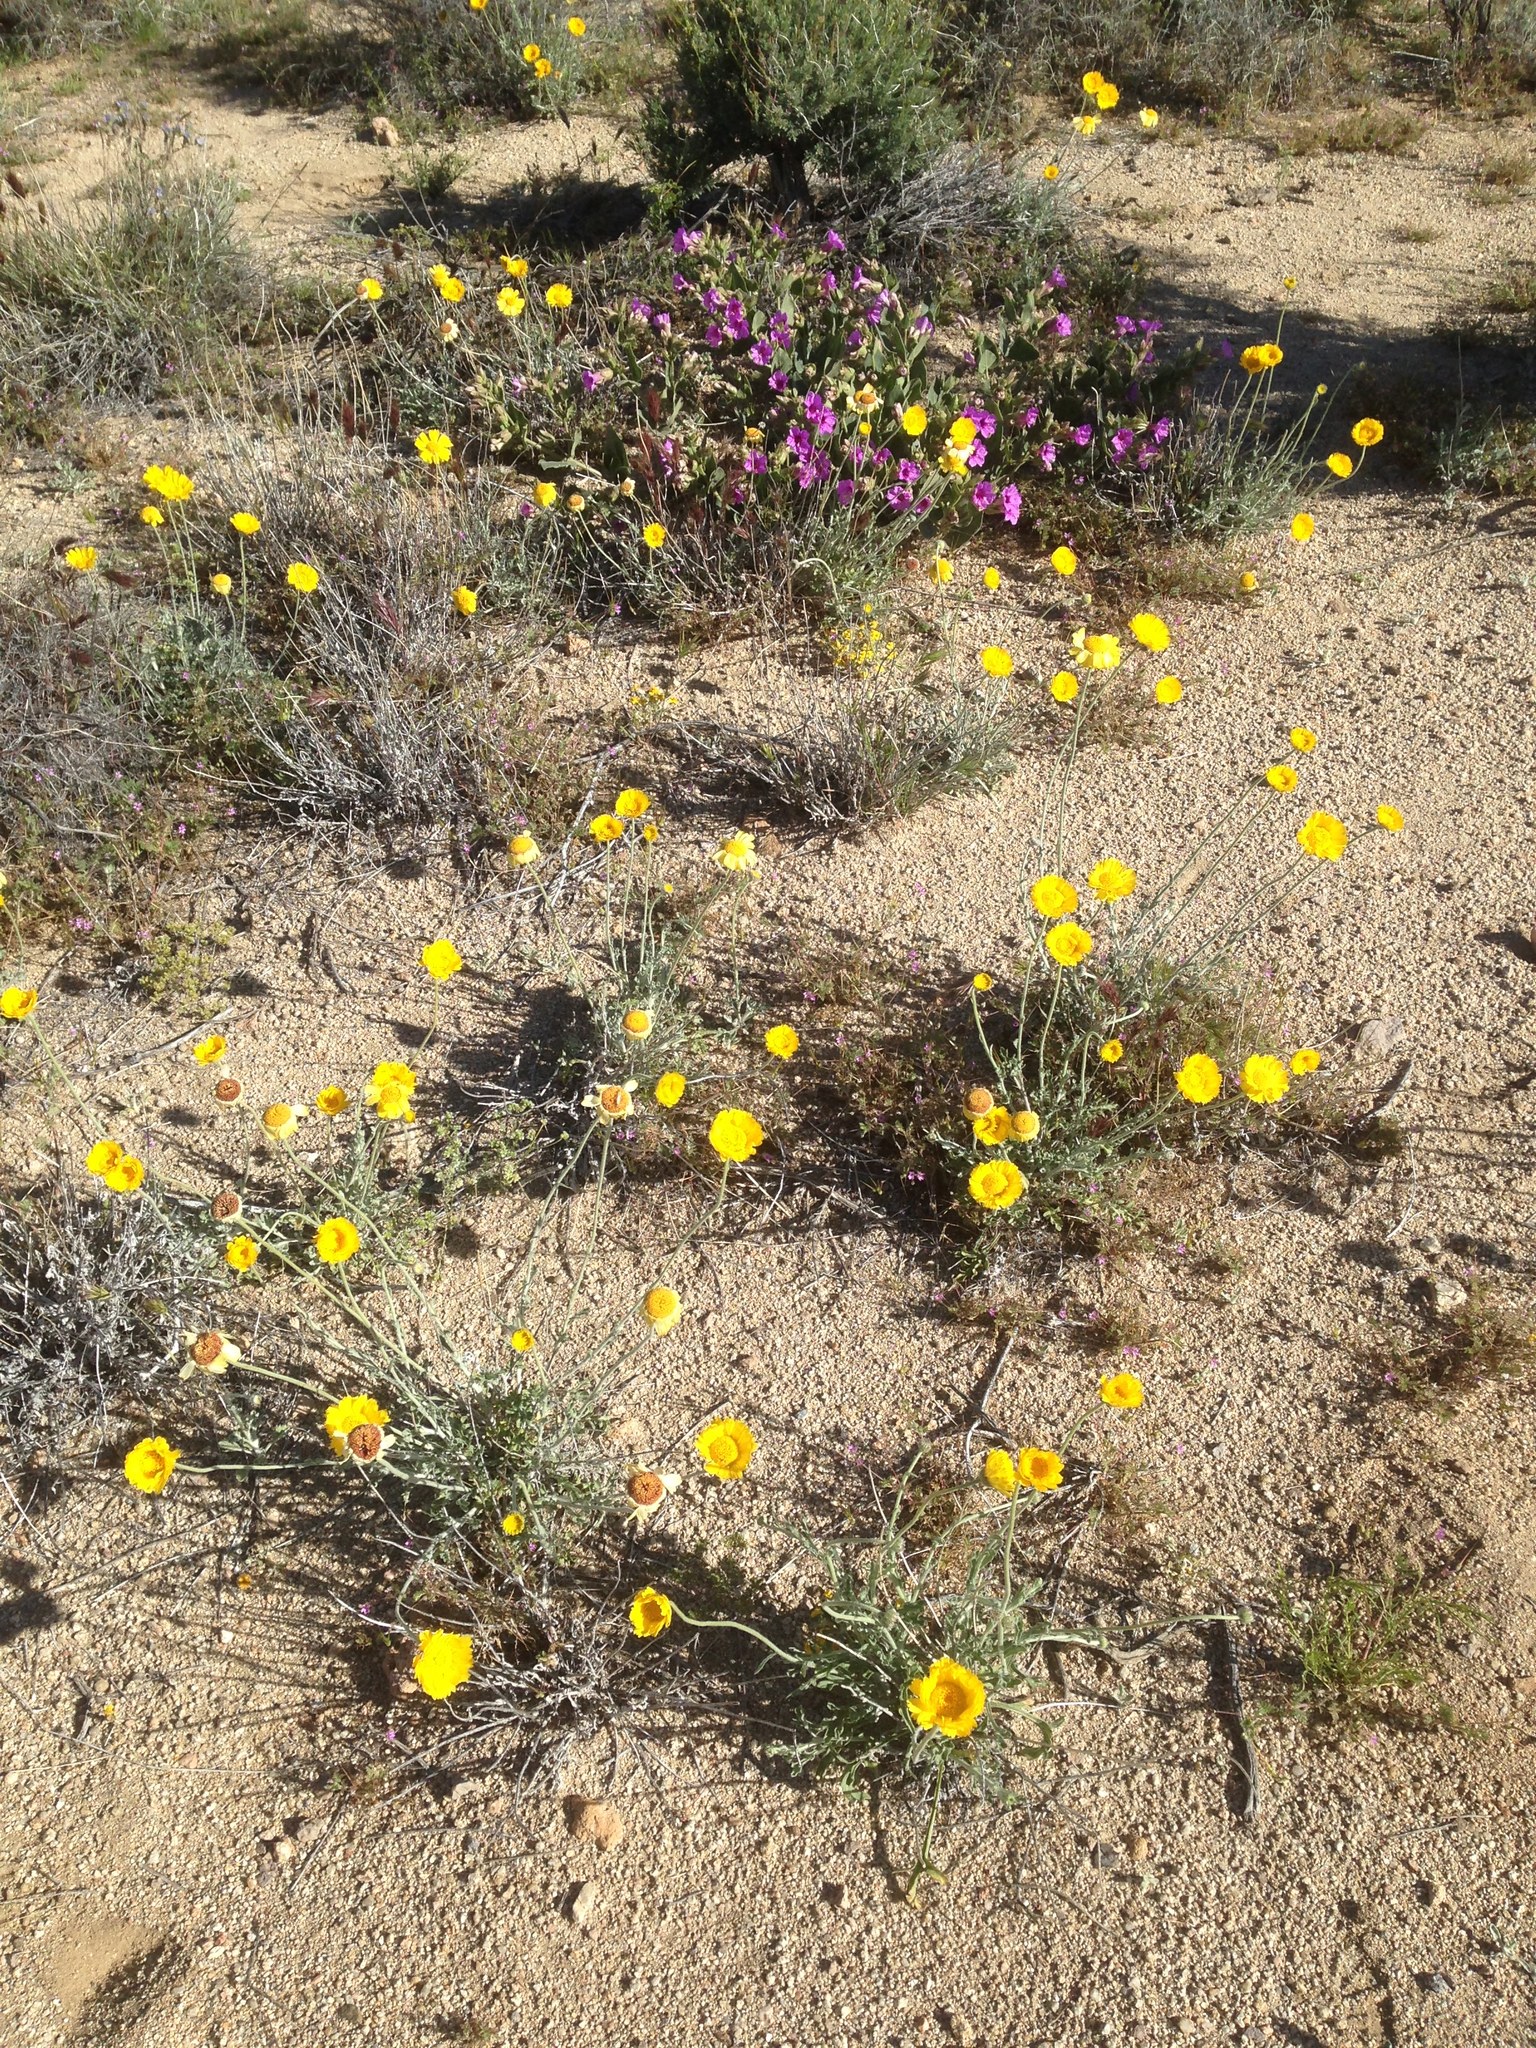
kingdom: Plantae
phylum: Tracheophyta
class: Magnoliopsida
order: Asterales
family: Asteraceae
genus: Baileya
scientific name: Baileya multiradiata
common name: Desert-marigold
